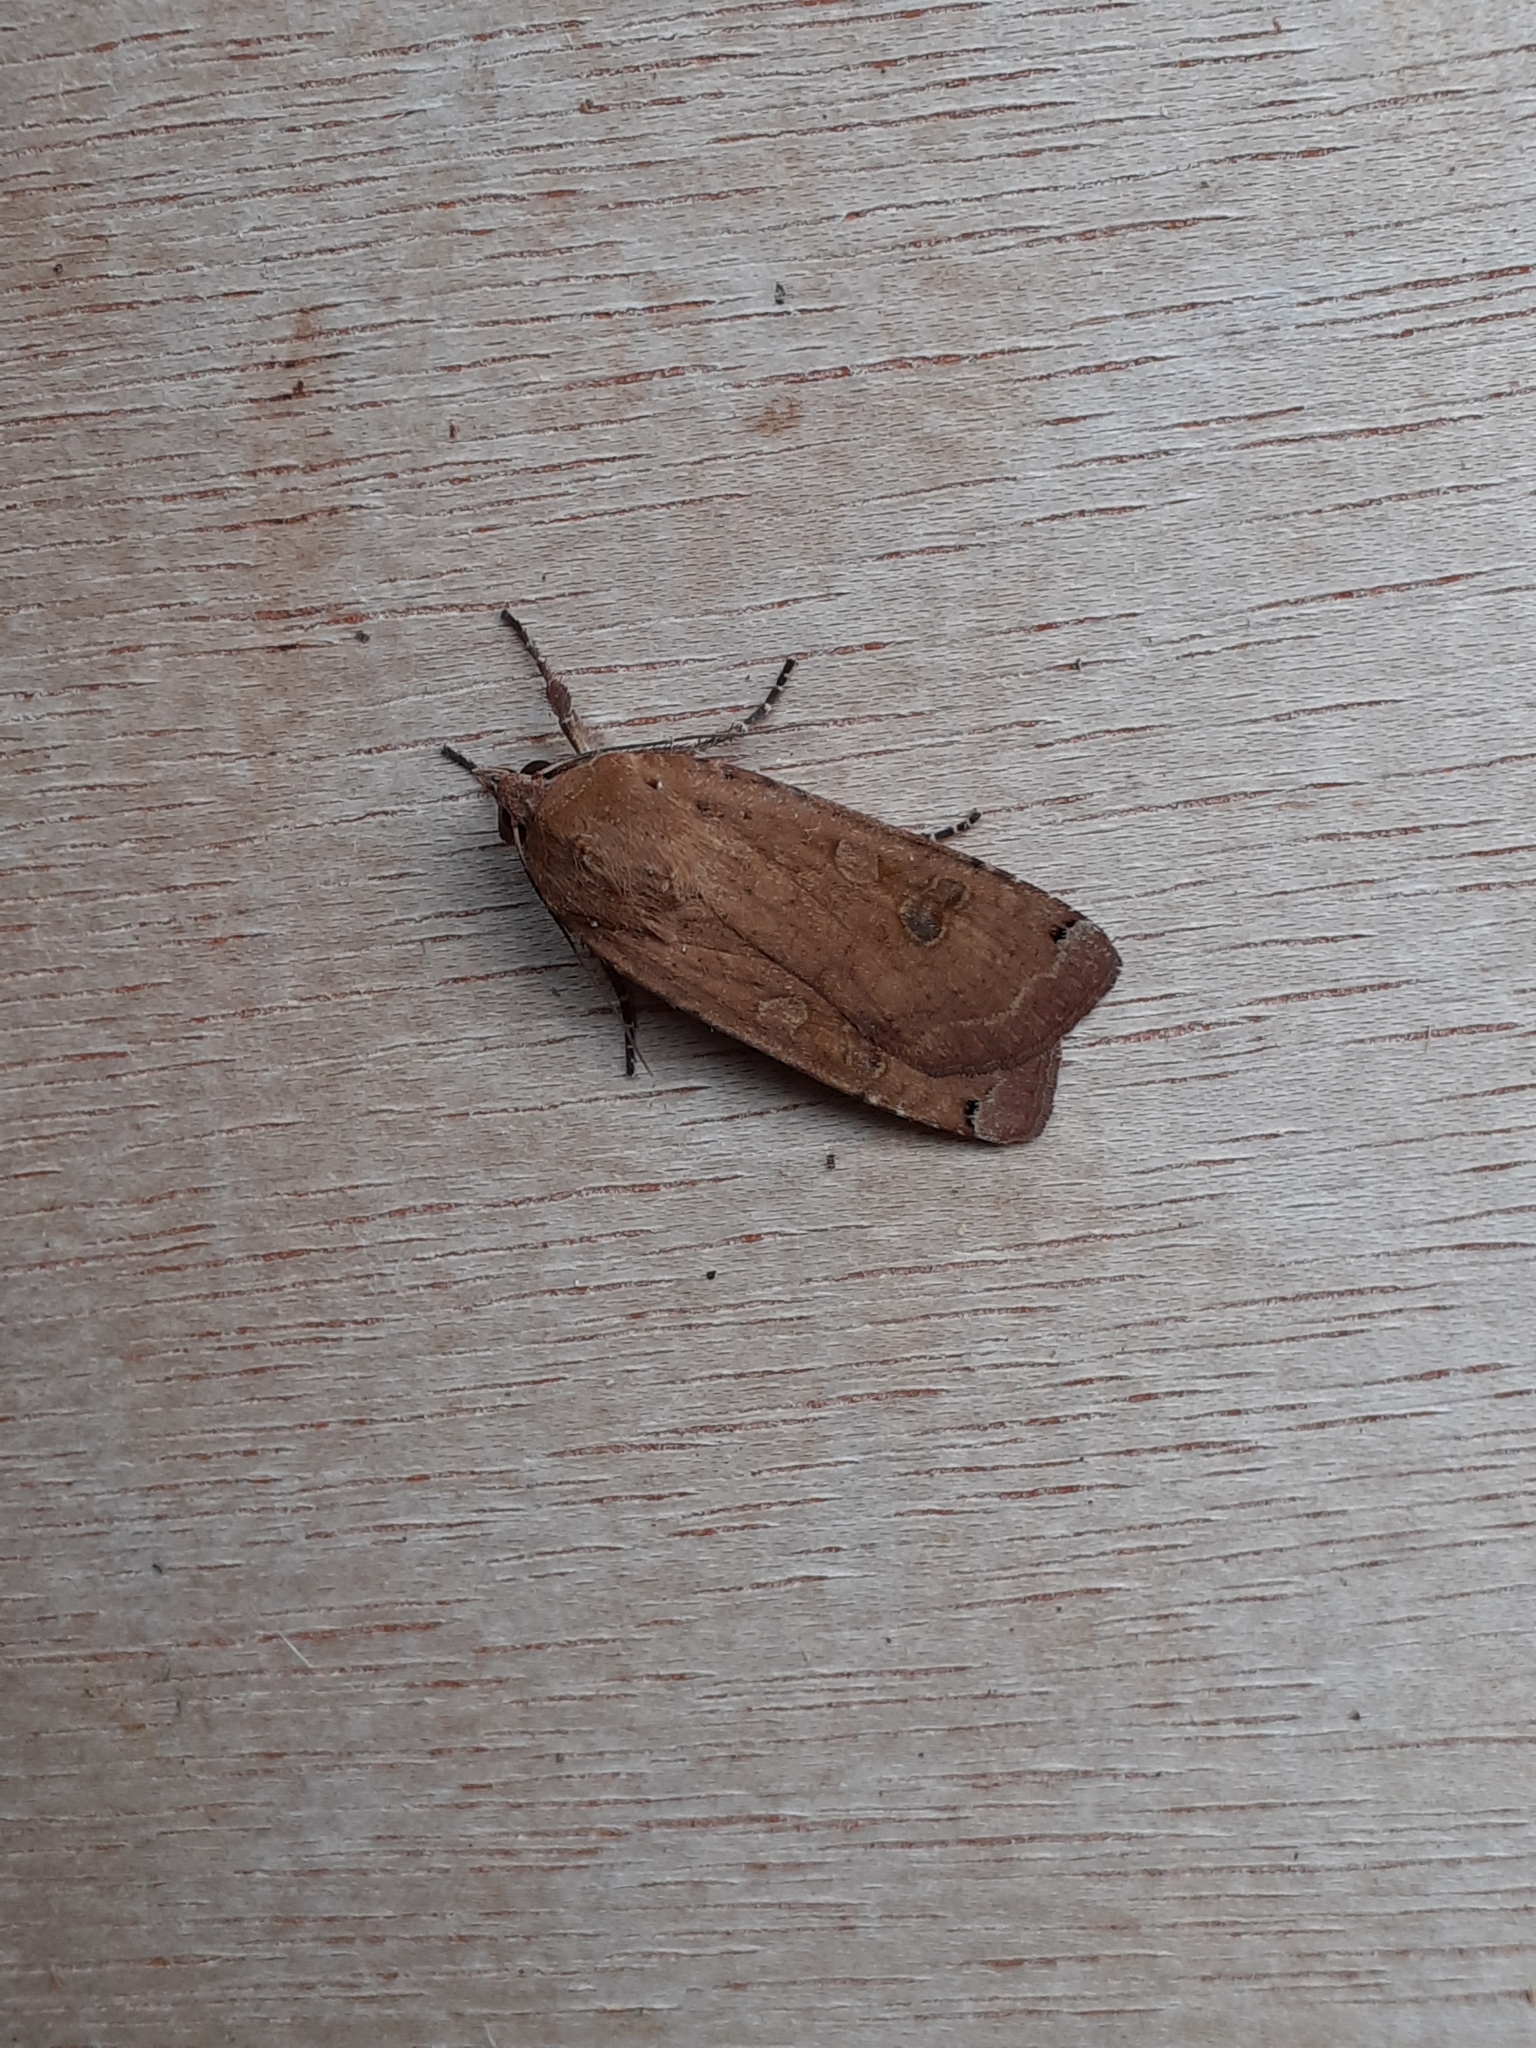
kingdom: Animalia
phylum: Arthropoda
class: Insecta
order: Lepidoptera
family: Noctuidae
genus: Noctua
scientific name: Noctua pronuba
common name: Large yellow underwing
